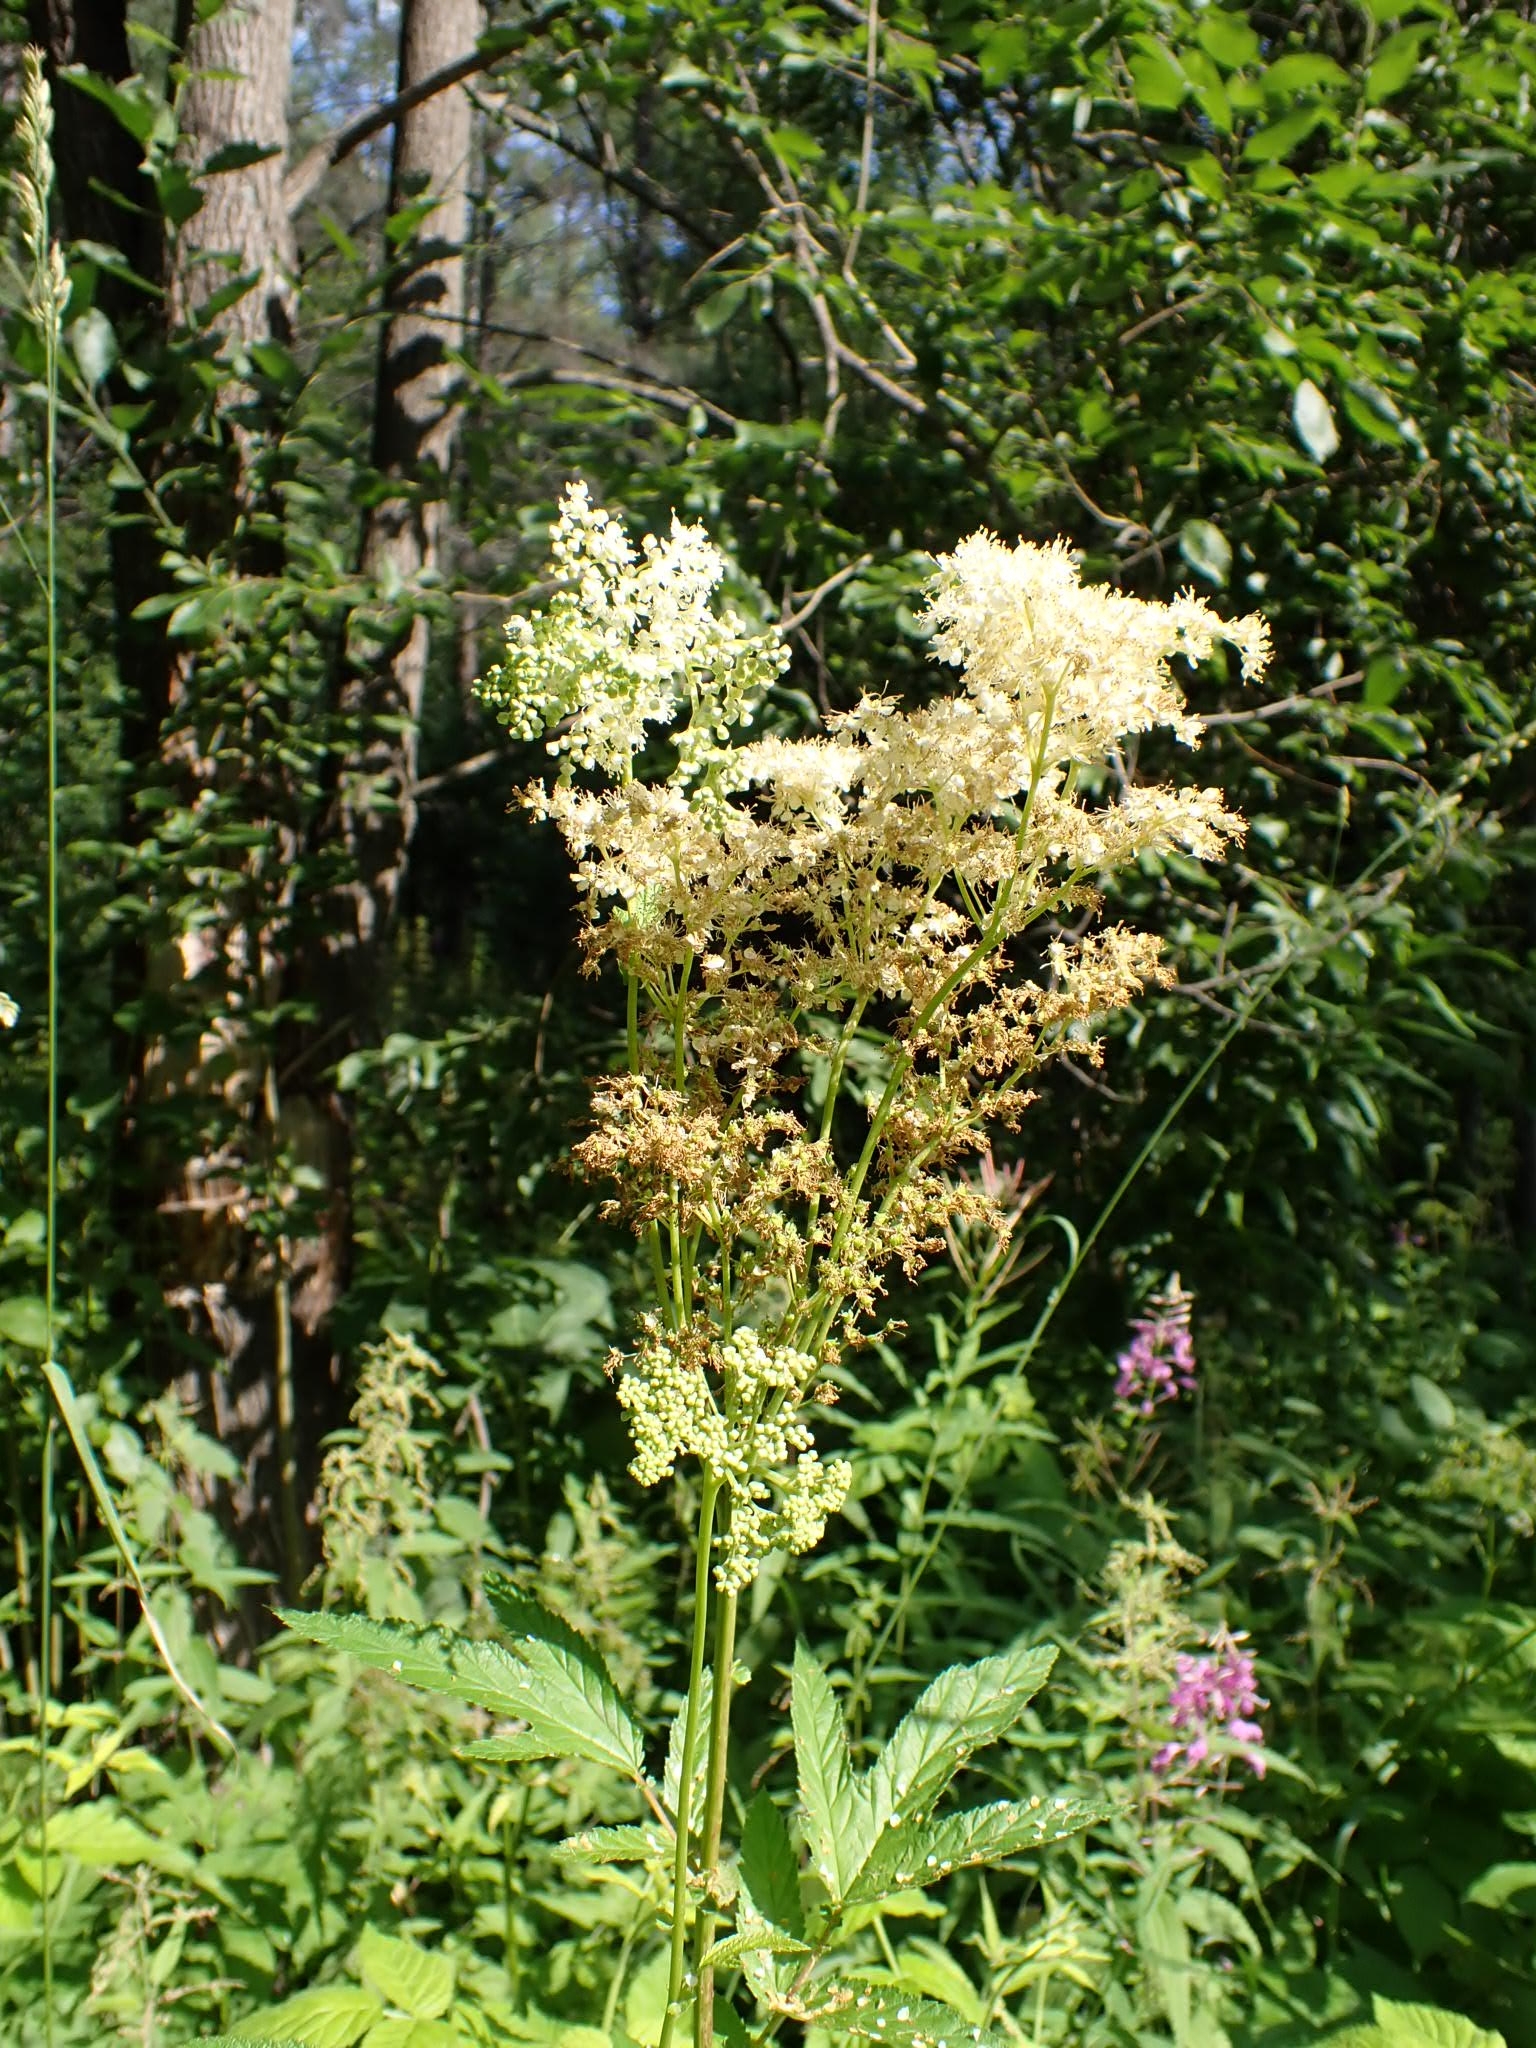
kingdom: Plantae
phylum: Tracheophyta
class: Magnoliopsida
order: Rosales
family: Rosaceae
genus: Filipendula
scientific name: Filipendula ulmaria
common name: Meadowsweet
